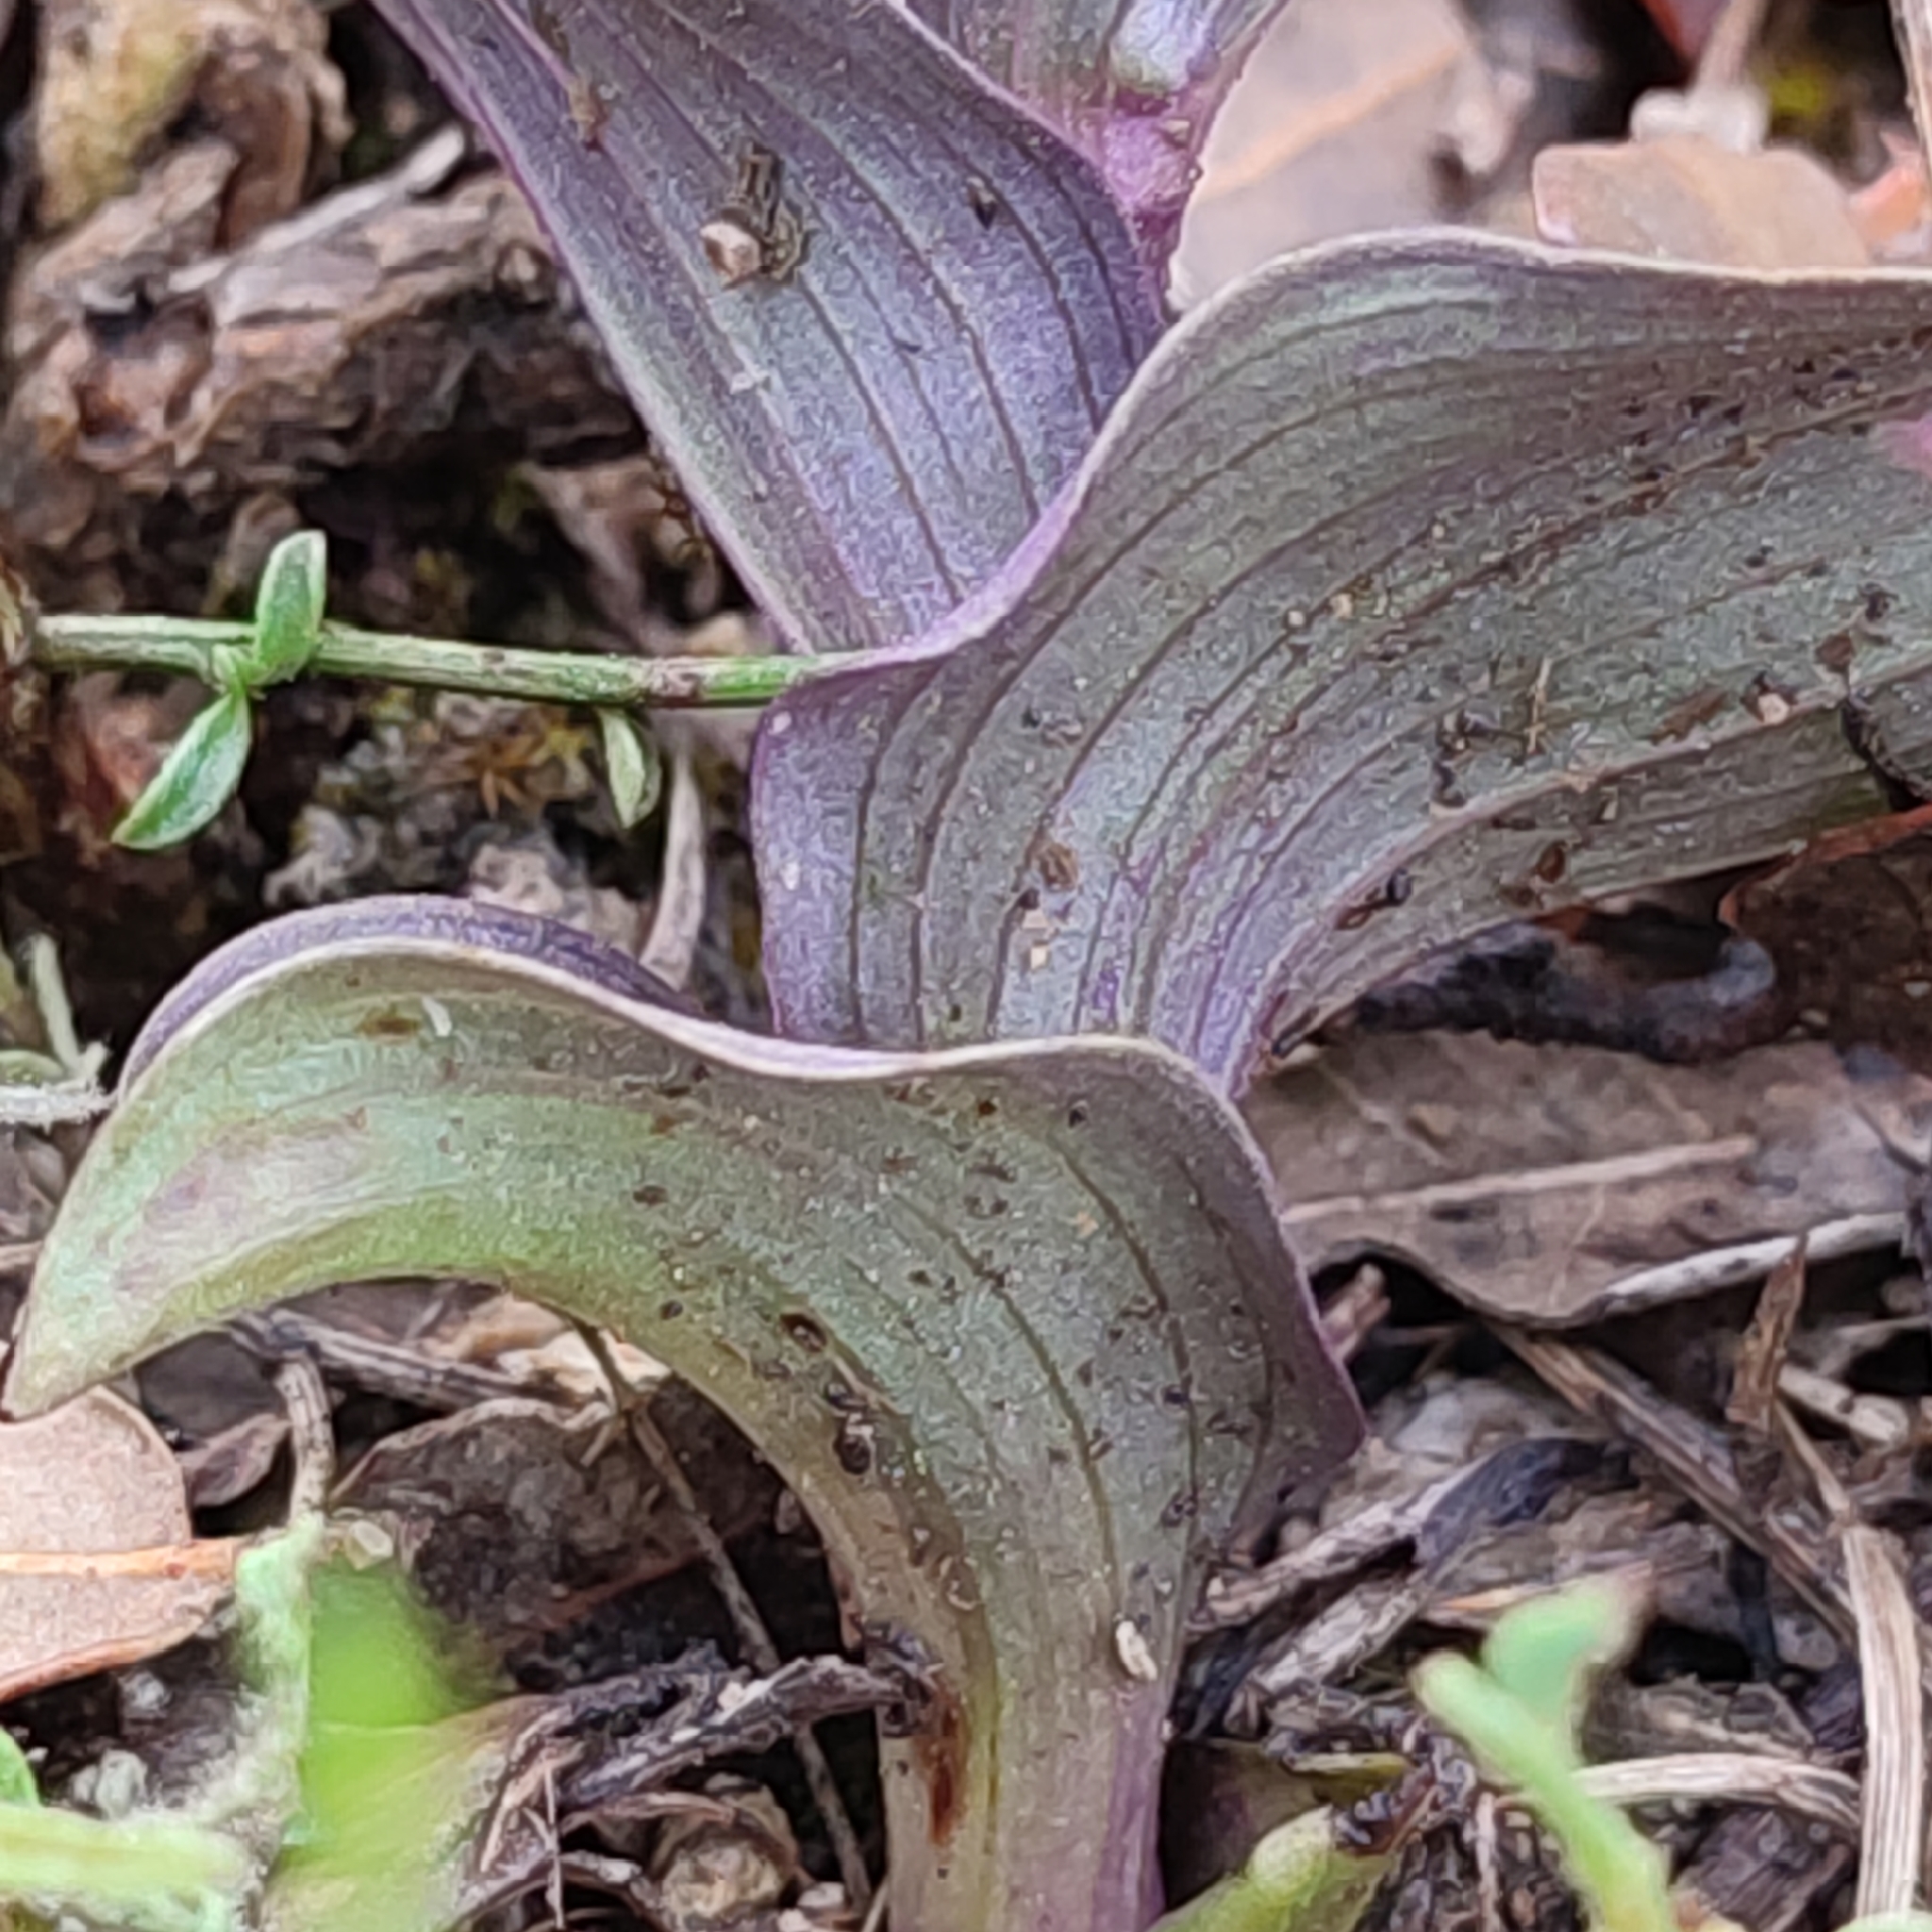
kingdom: Plantae
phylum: Tracheophyta
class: Liliopsida
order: Asparagales
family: Orchidaceae
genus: Epipactis
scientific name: Epipactis kleinii
